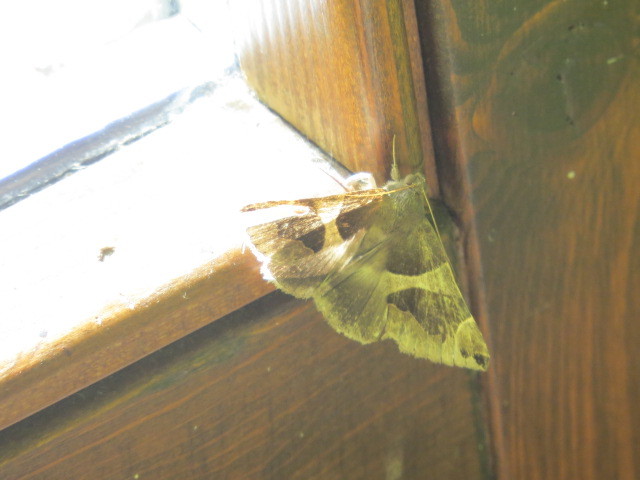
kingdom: Animalia
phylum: Arthropoda
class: Insecta
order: Lepidoptera
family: Erebidae
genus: Dysgonia
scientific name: Dysgonia algira
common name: Passenger
